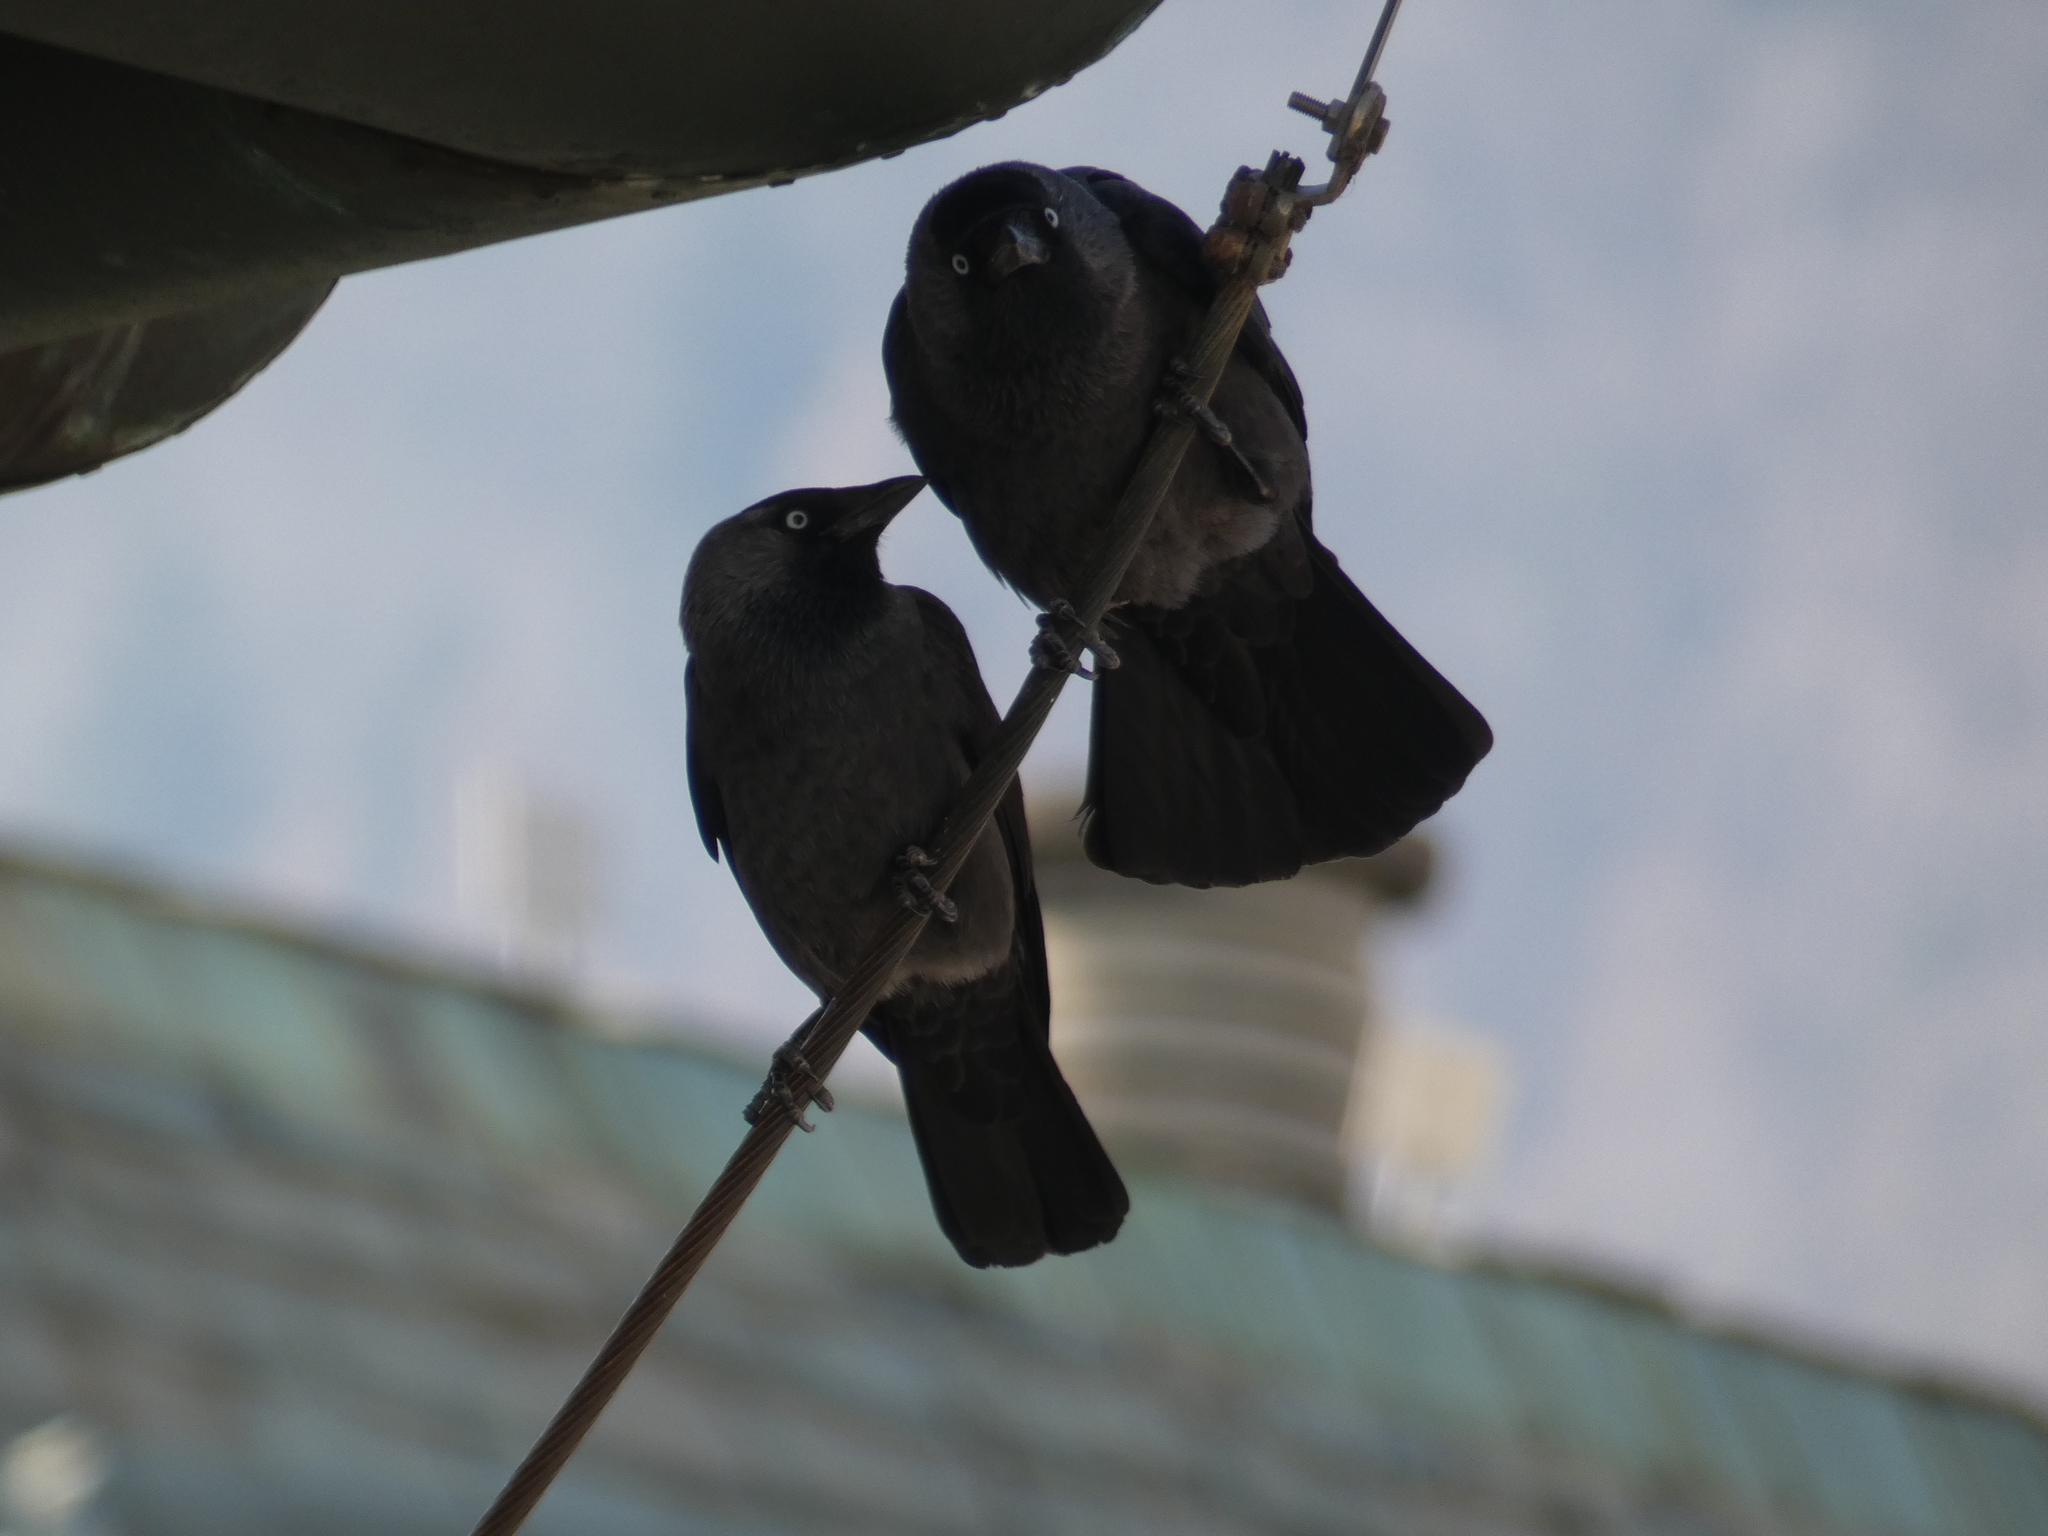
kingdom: Animalia
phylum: Chordata
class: Aves
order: Passeriformes
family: Corvidae
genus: Coloeus
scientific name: Coloeus monedula
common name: Western jackdaw
